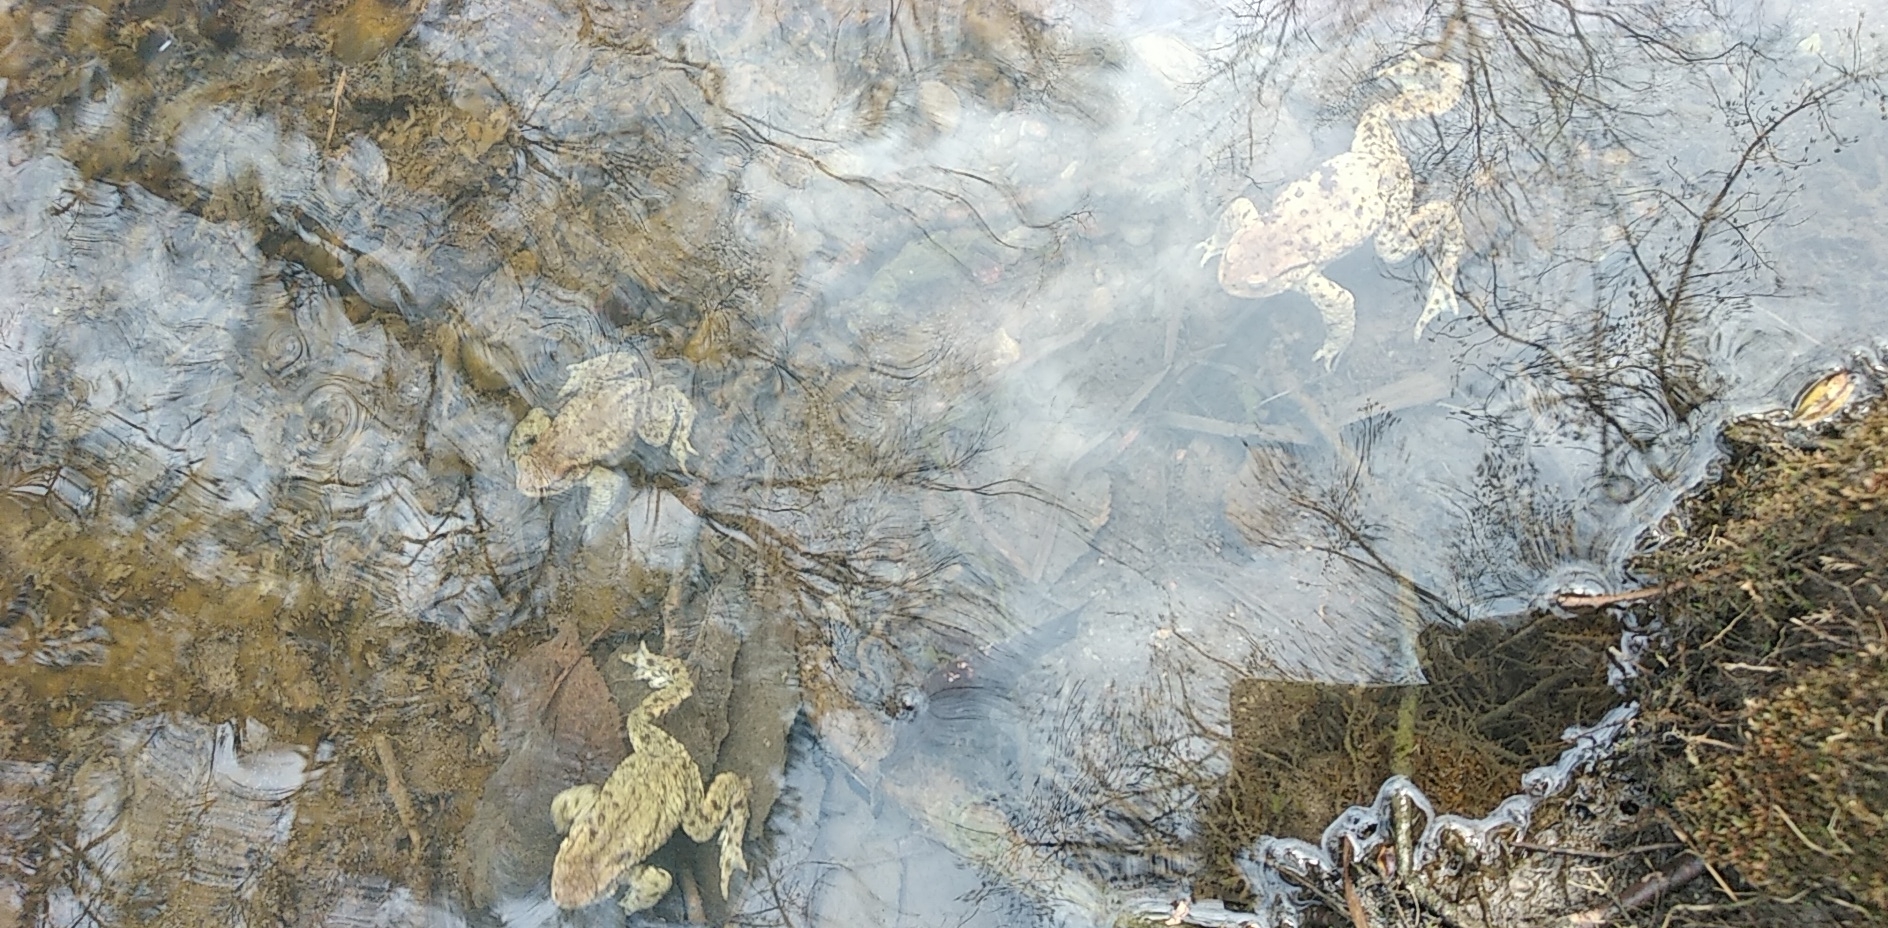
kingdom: Animalia
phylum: Chordata
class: Amphibia
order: Anura
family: Bufonidae
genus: Bufo
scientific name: Bufo bufo
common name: Common toad
